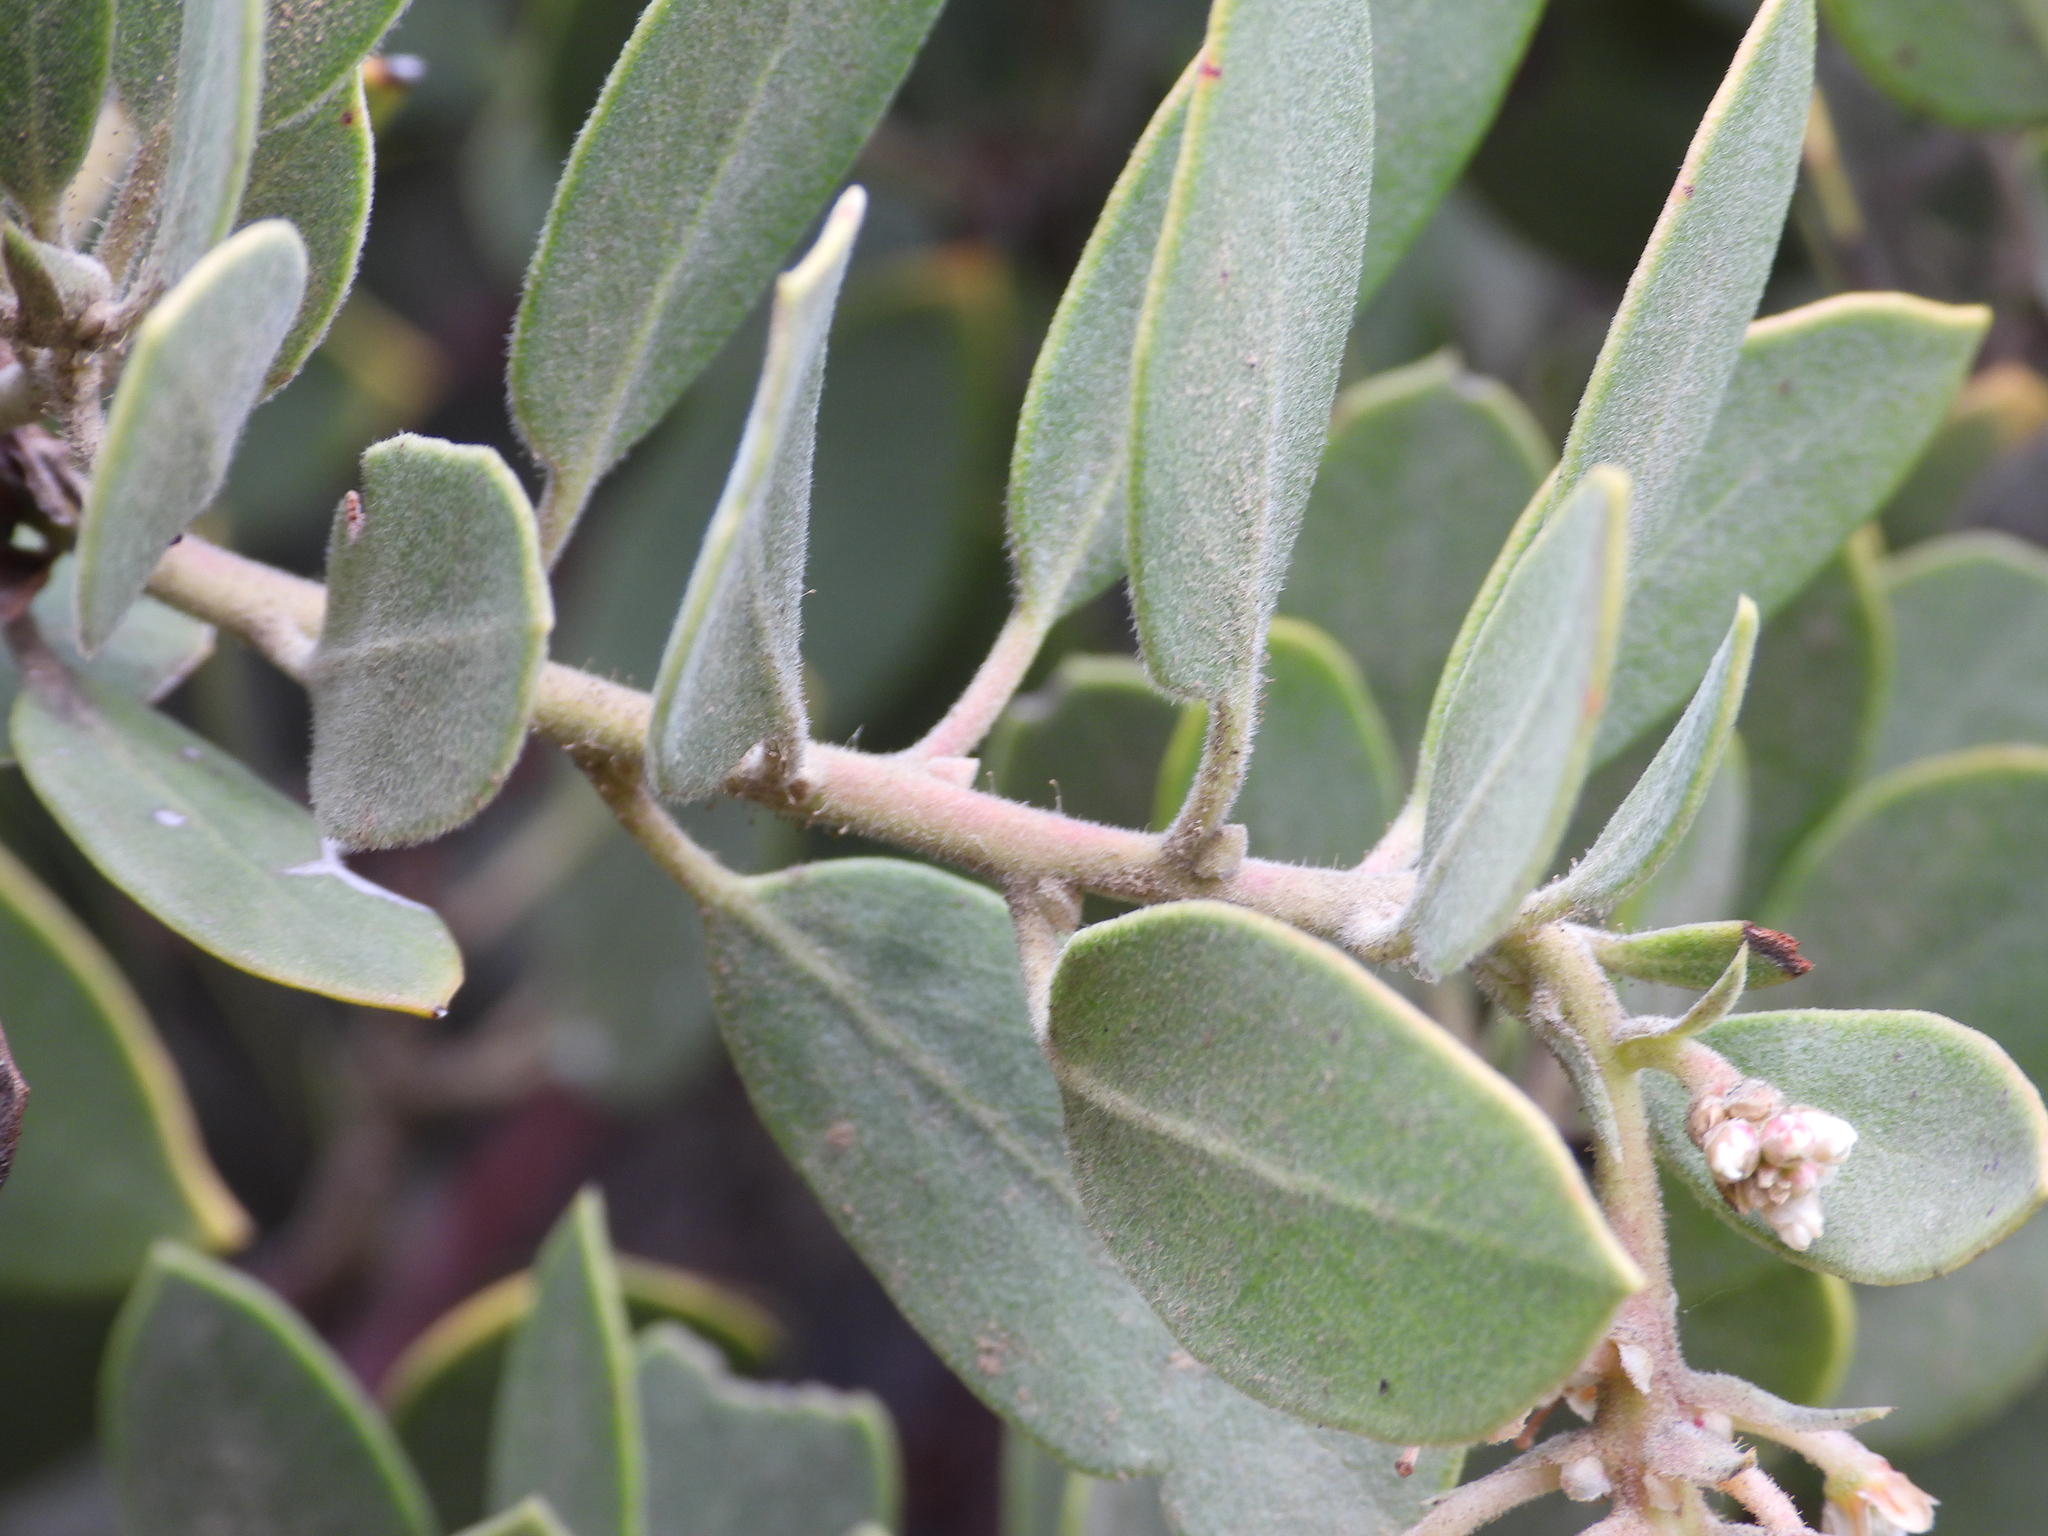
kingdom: Plantae
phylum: Tracheophyta
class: Magnoliopsida
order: Ericales
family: Ericaceae
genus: Arctostaphylos
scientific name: Arctostaphylos glandulosa
